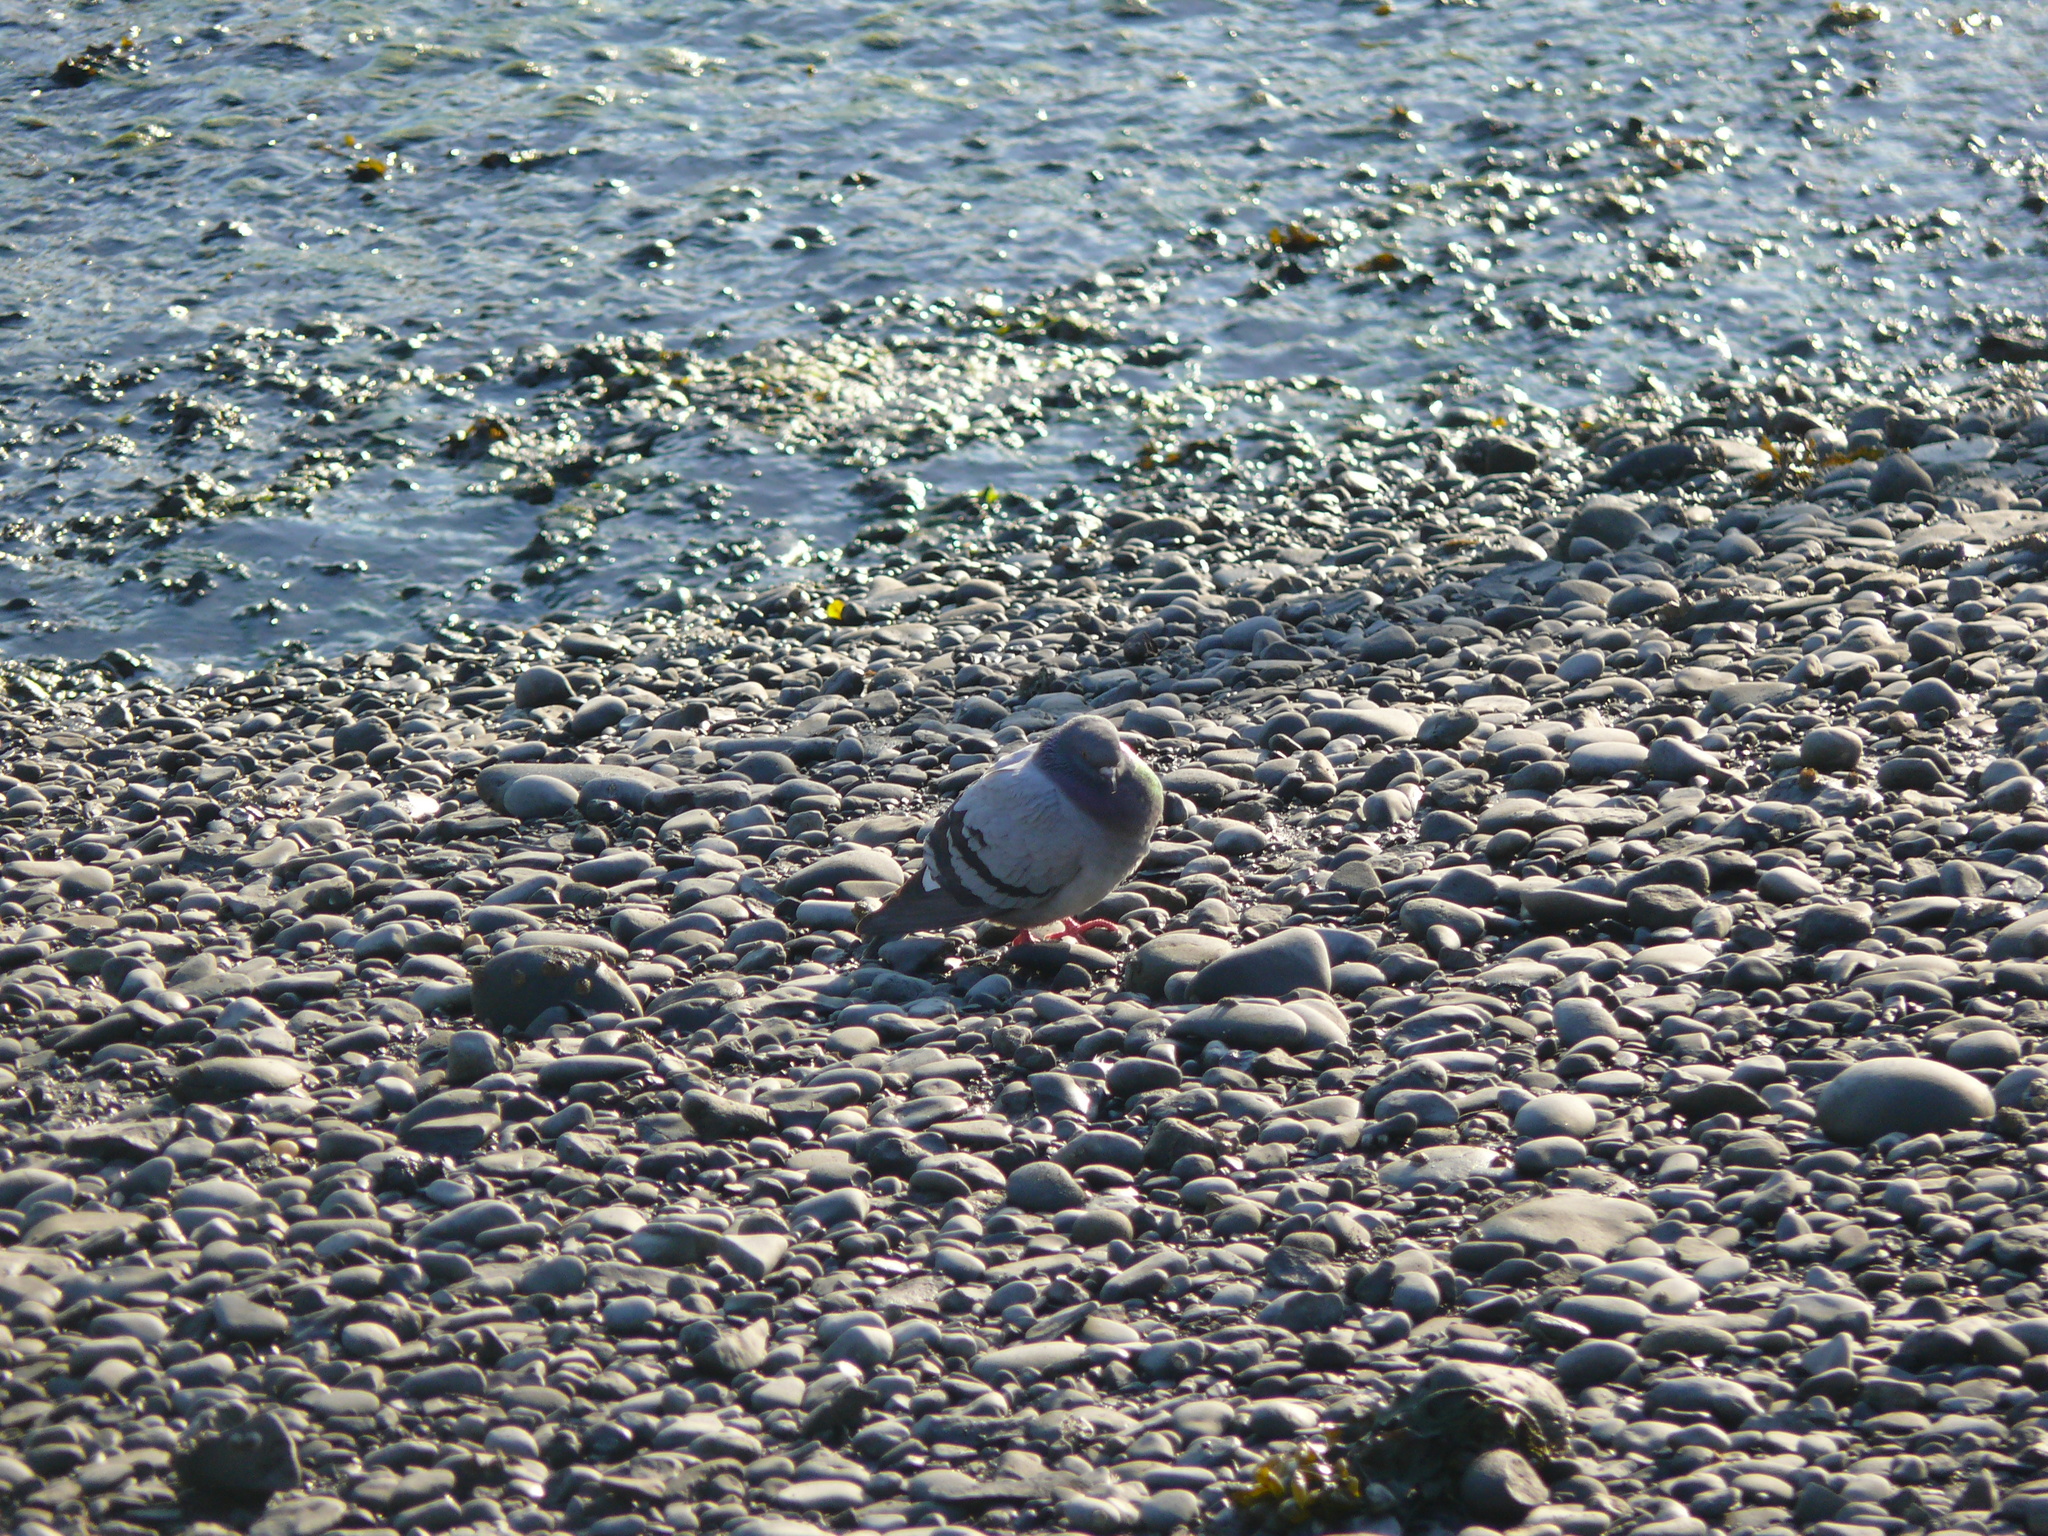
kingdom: Animalia
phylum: Chordata
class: Aves
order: Columbiformes
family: Columbidae
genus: Columba
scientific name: Columba livia
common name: Rock pigeon
